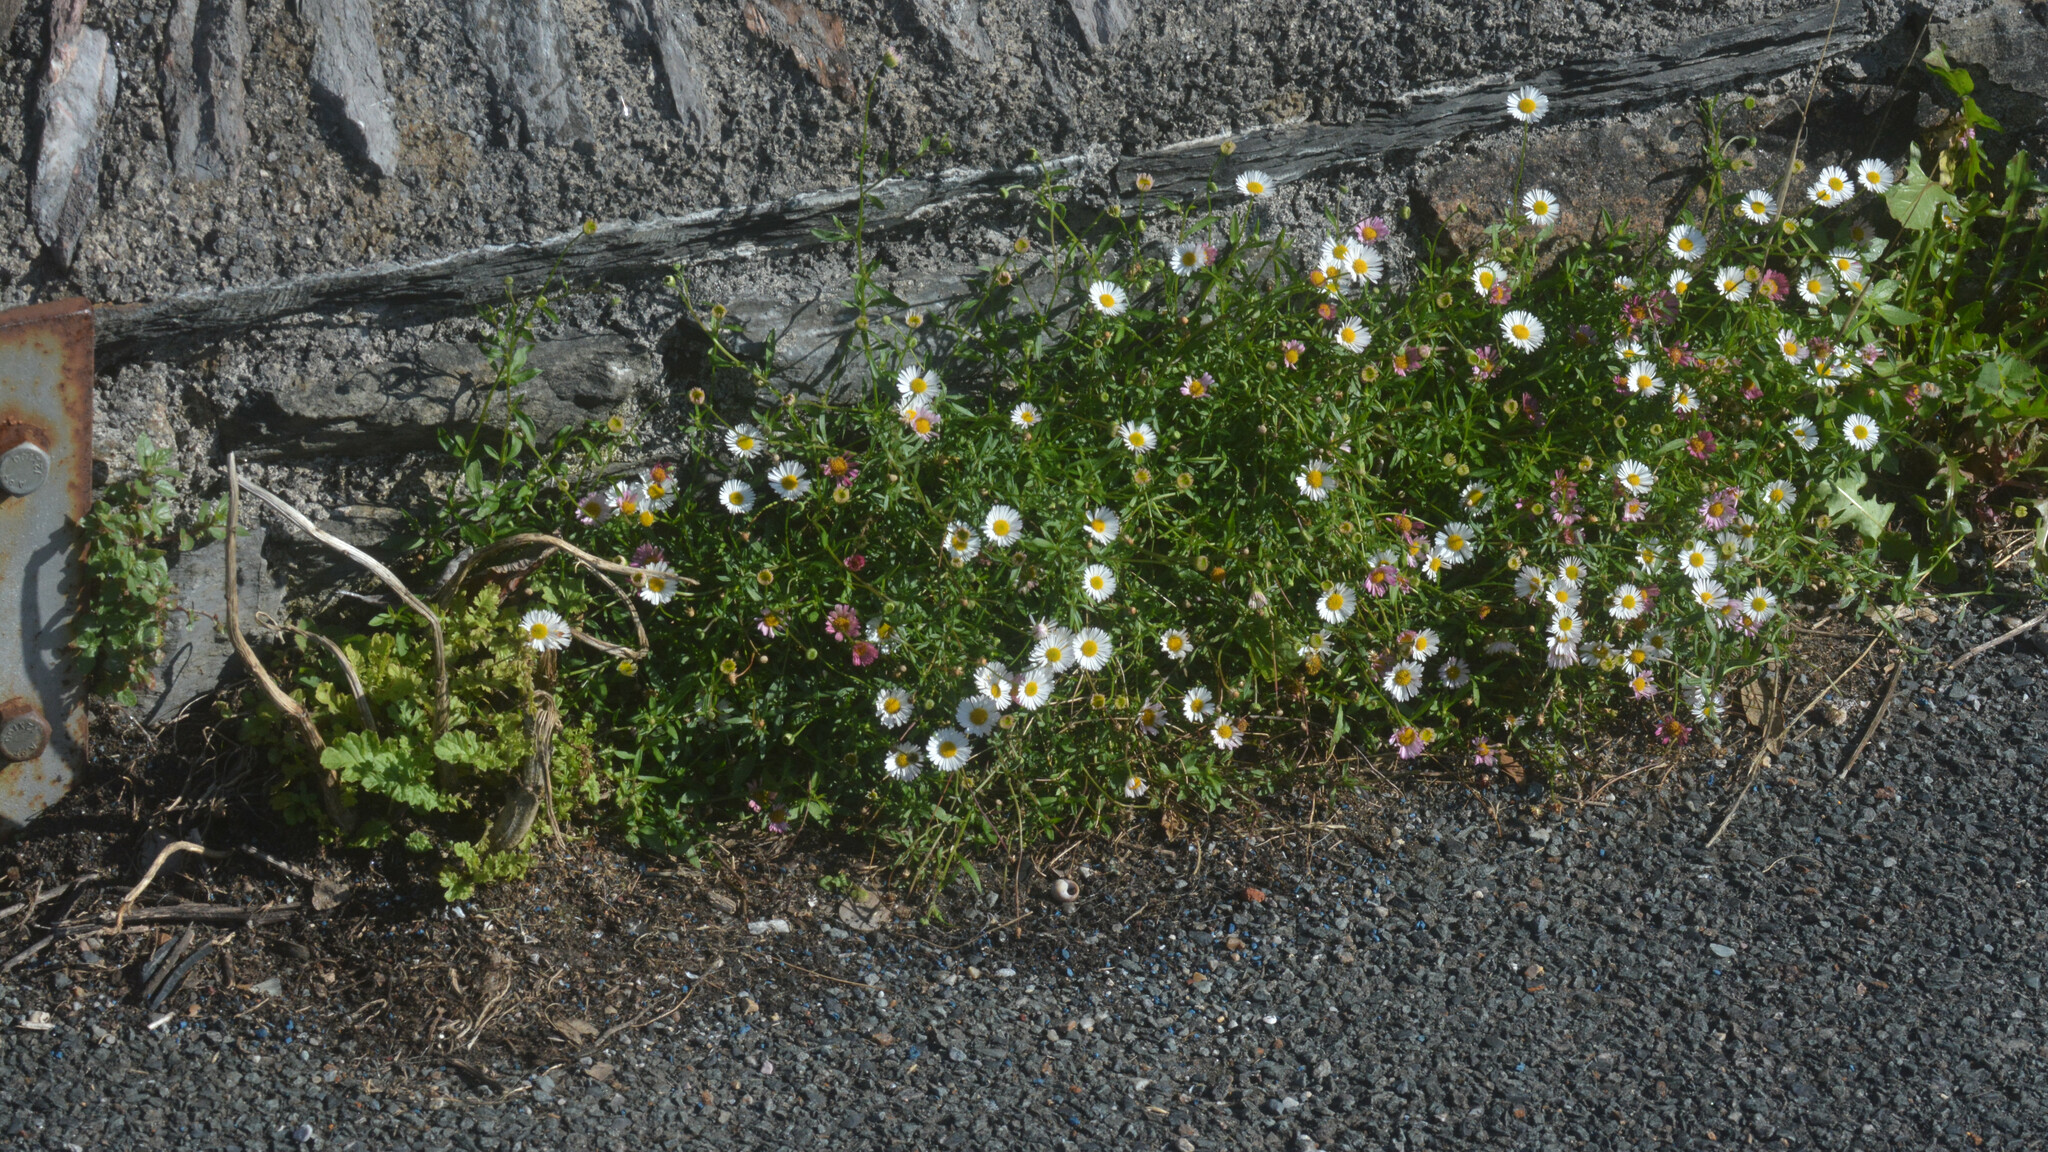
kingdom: Plantae
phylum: Tracheophyta
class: Magnoliopsida
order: Asterales
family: Asteraceae
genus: Erigeron
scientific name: Erigeron karvinskianus
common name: Mexican fleabane
